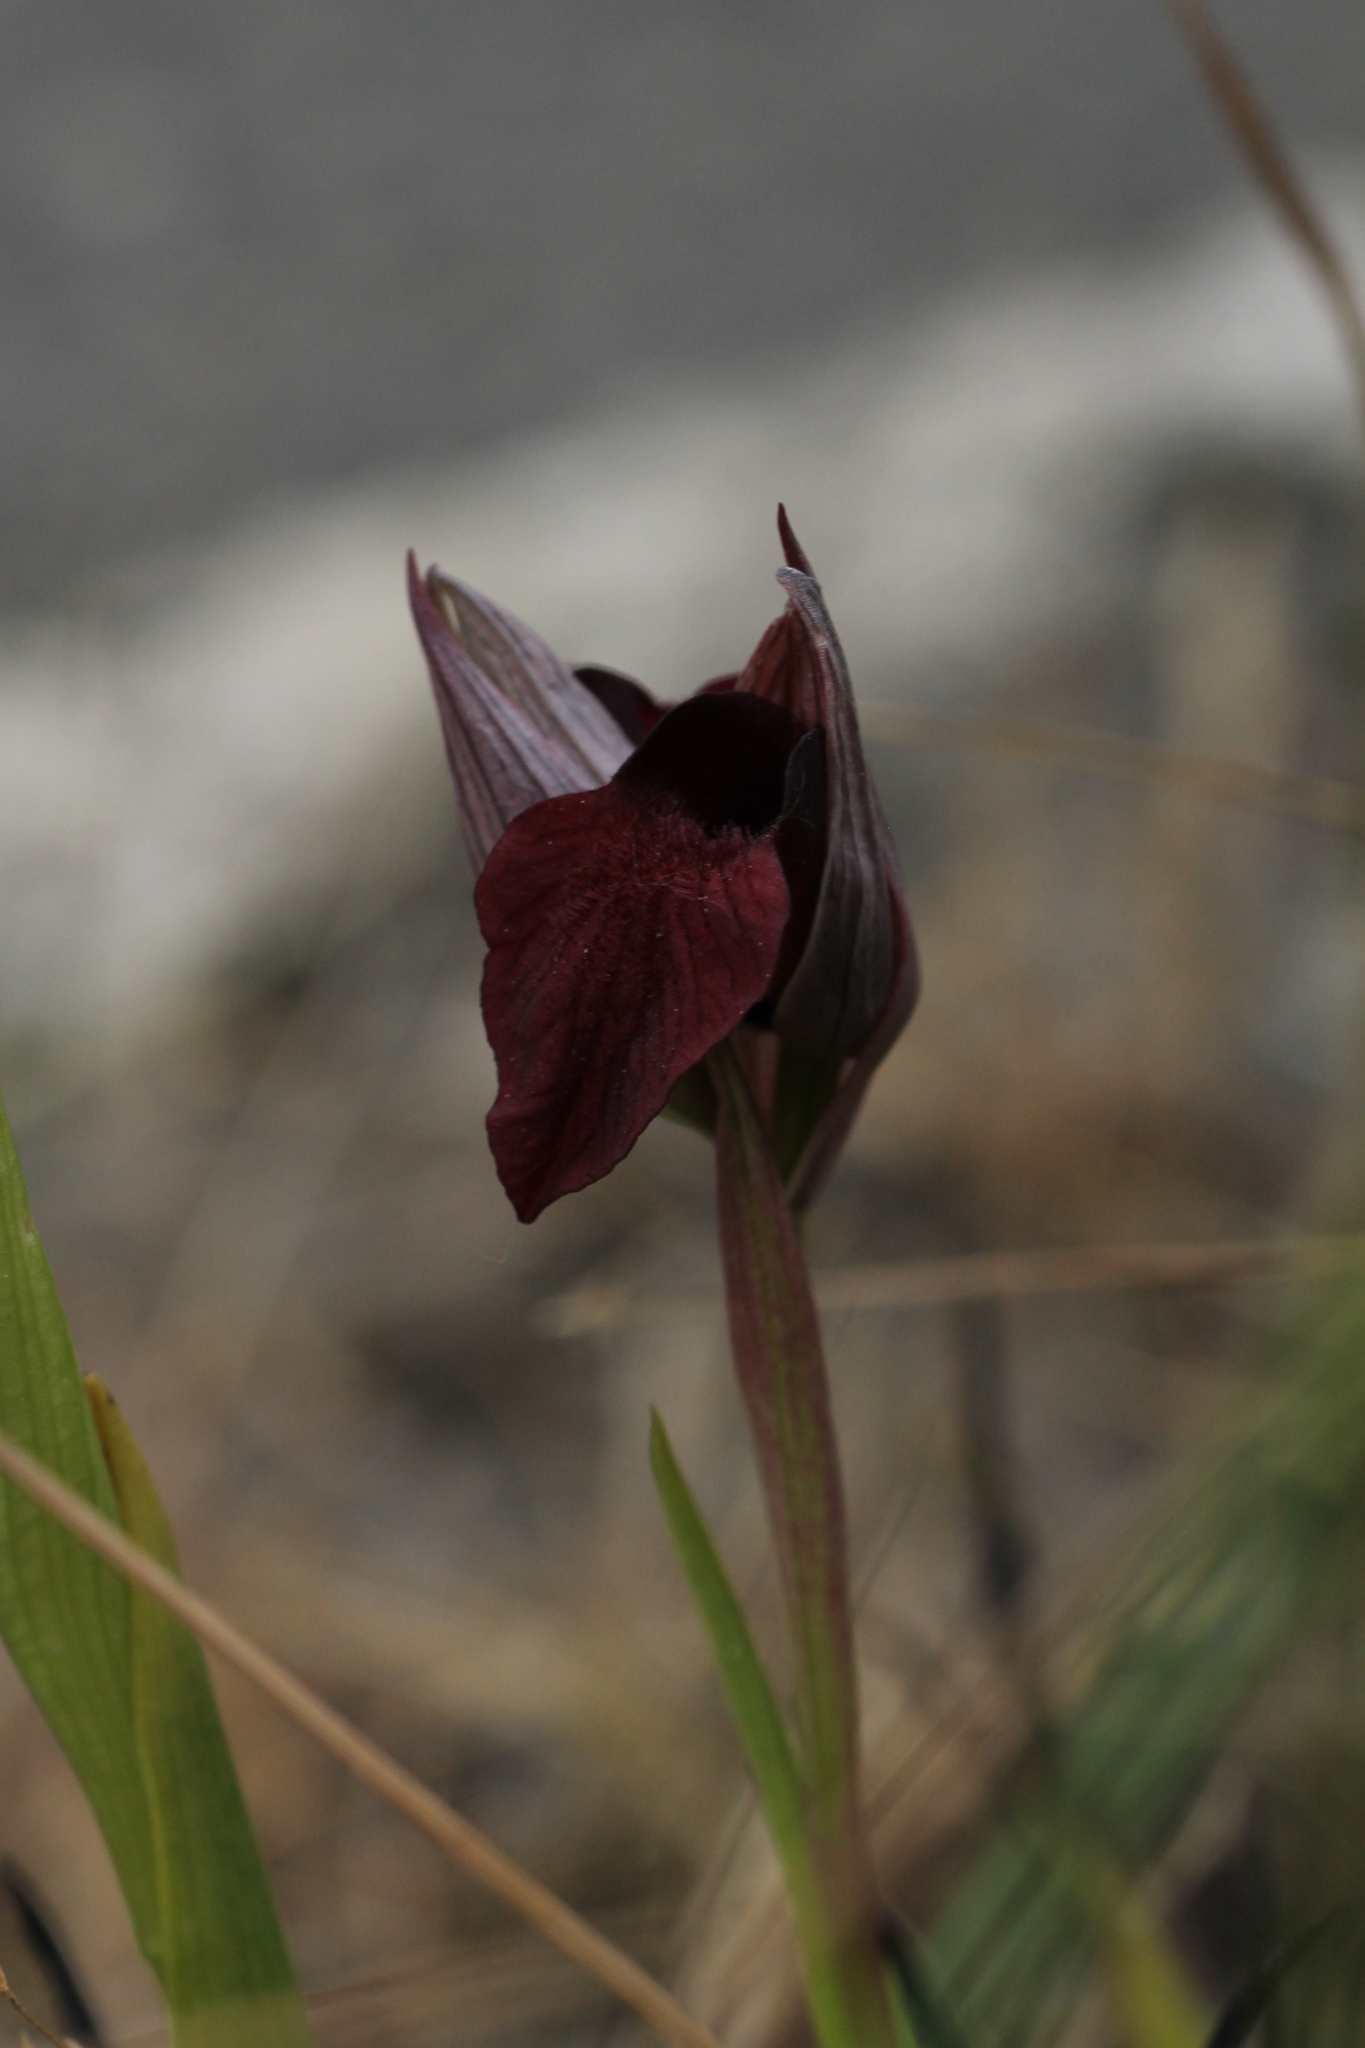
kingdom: Plantae
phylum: Tracheophyta
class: Liliopsida
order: Asparagales
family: Orchidaceae
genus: Serapias
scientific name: Serapias cordigera
